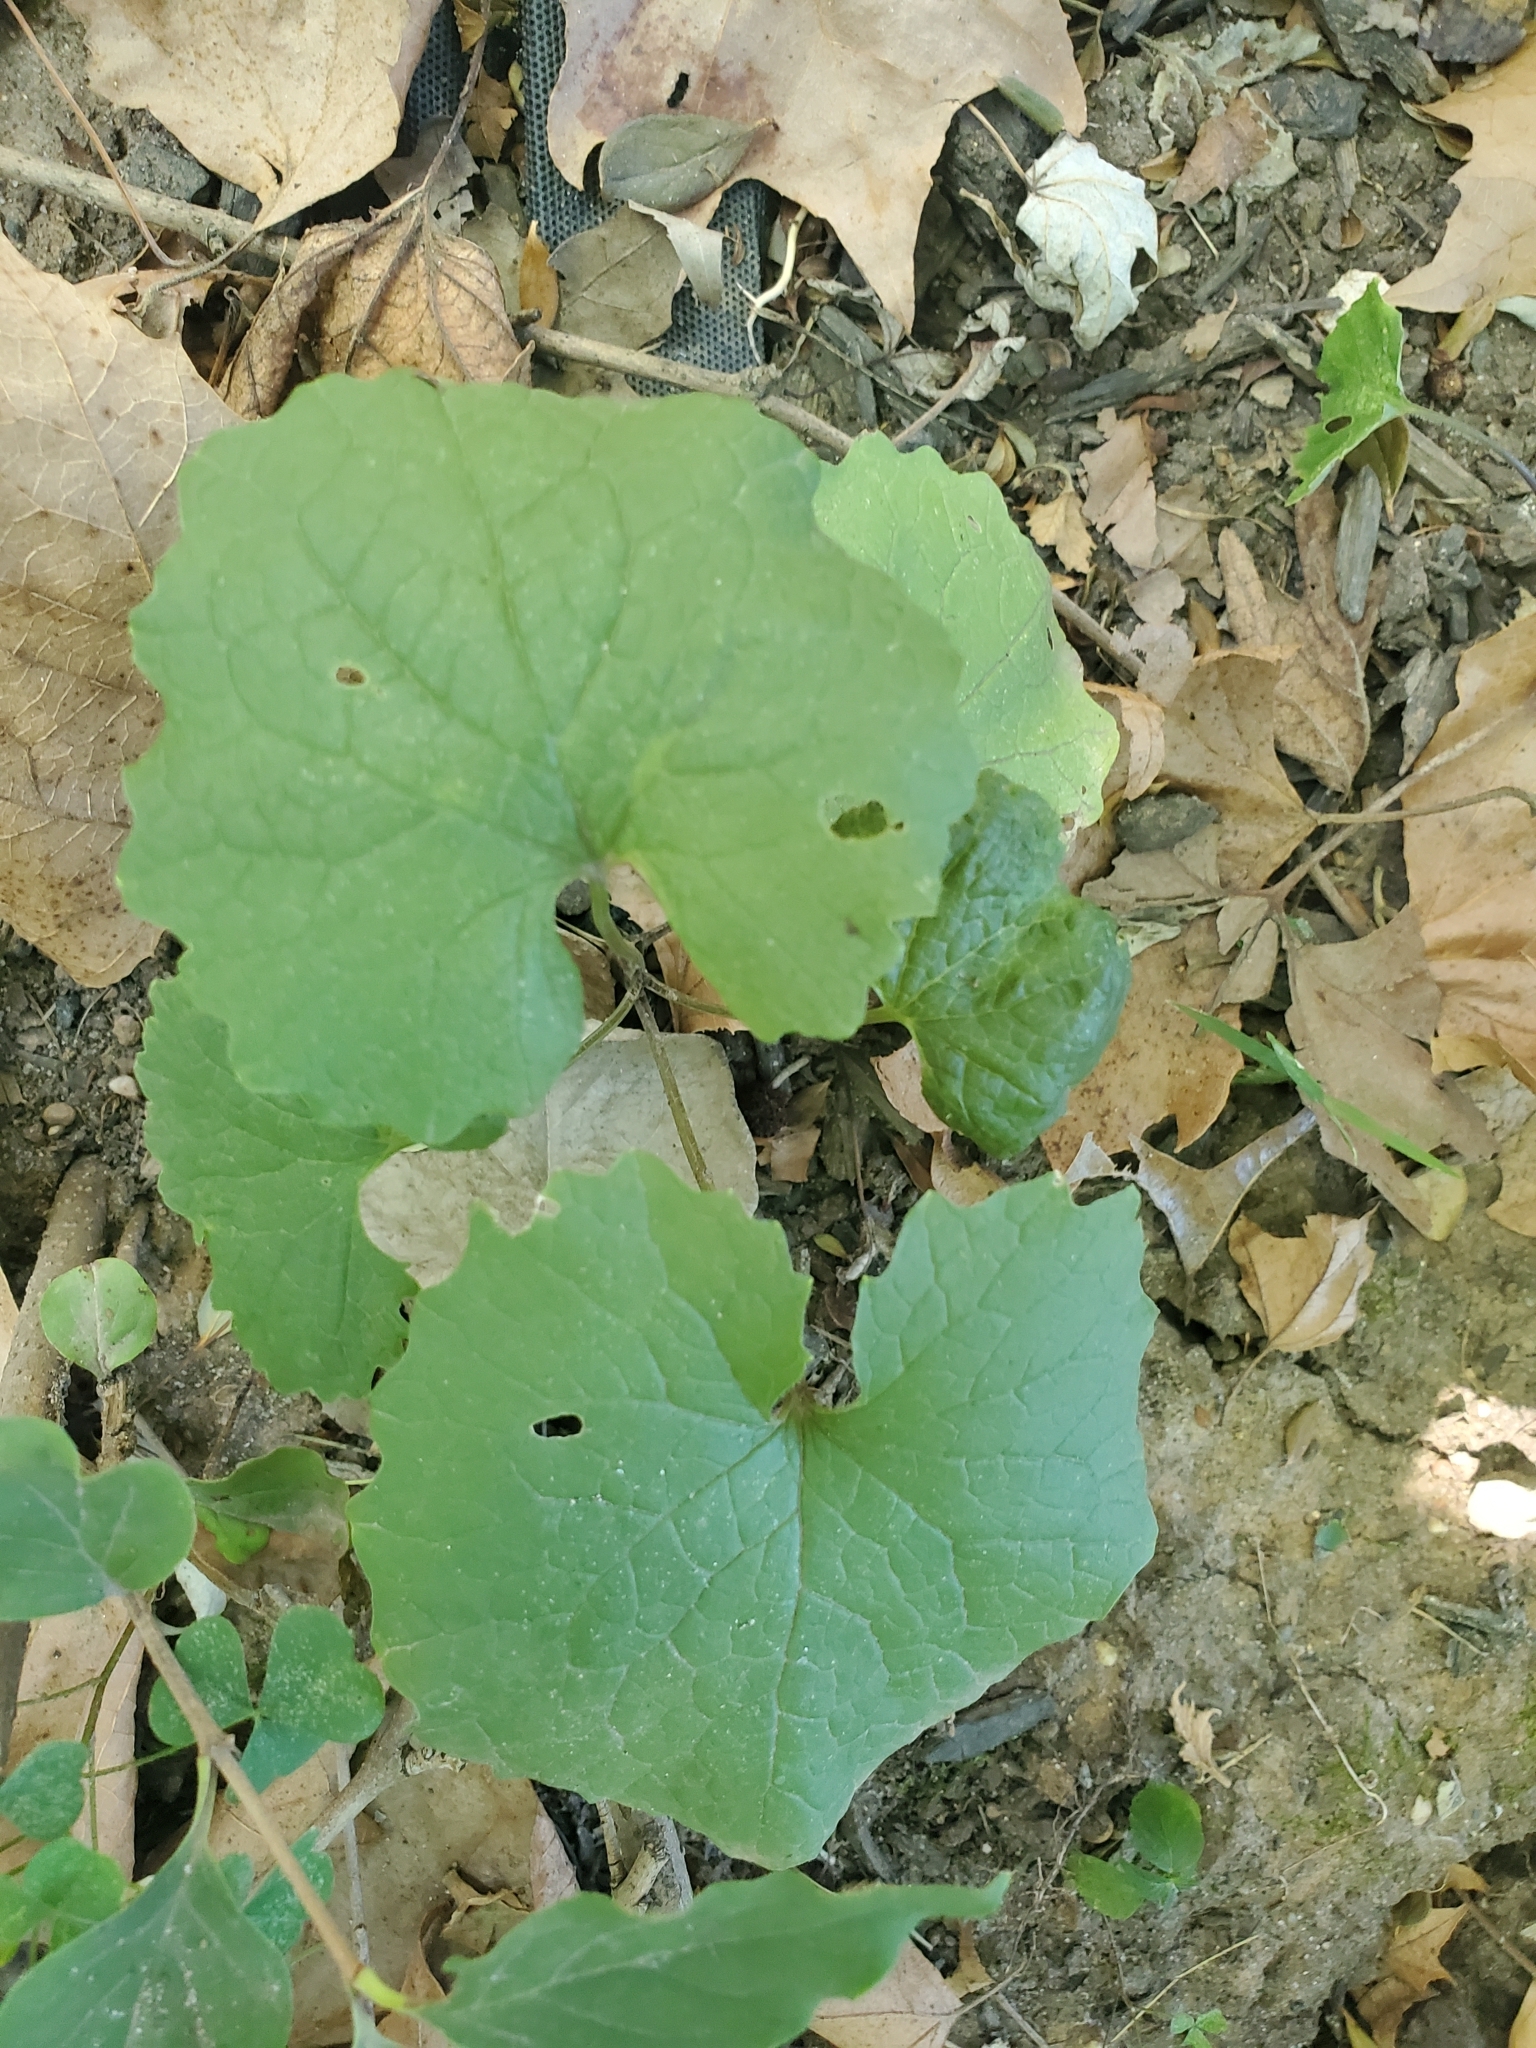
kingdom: Plantae
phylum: Tracheophyta
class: Magnoliopsida
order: Brassicales
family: Brassicaceae
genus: Alliaria
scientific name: Alliaria petiolata
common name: Garlic mustard
